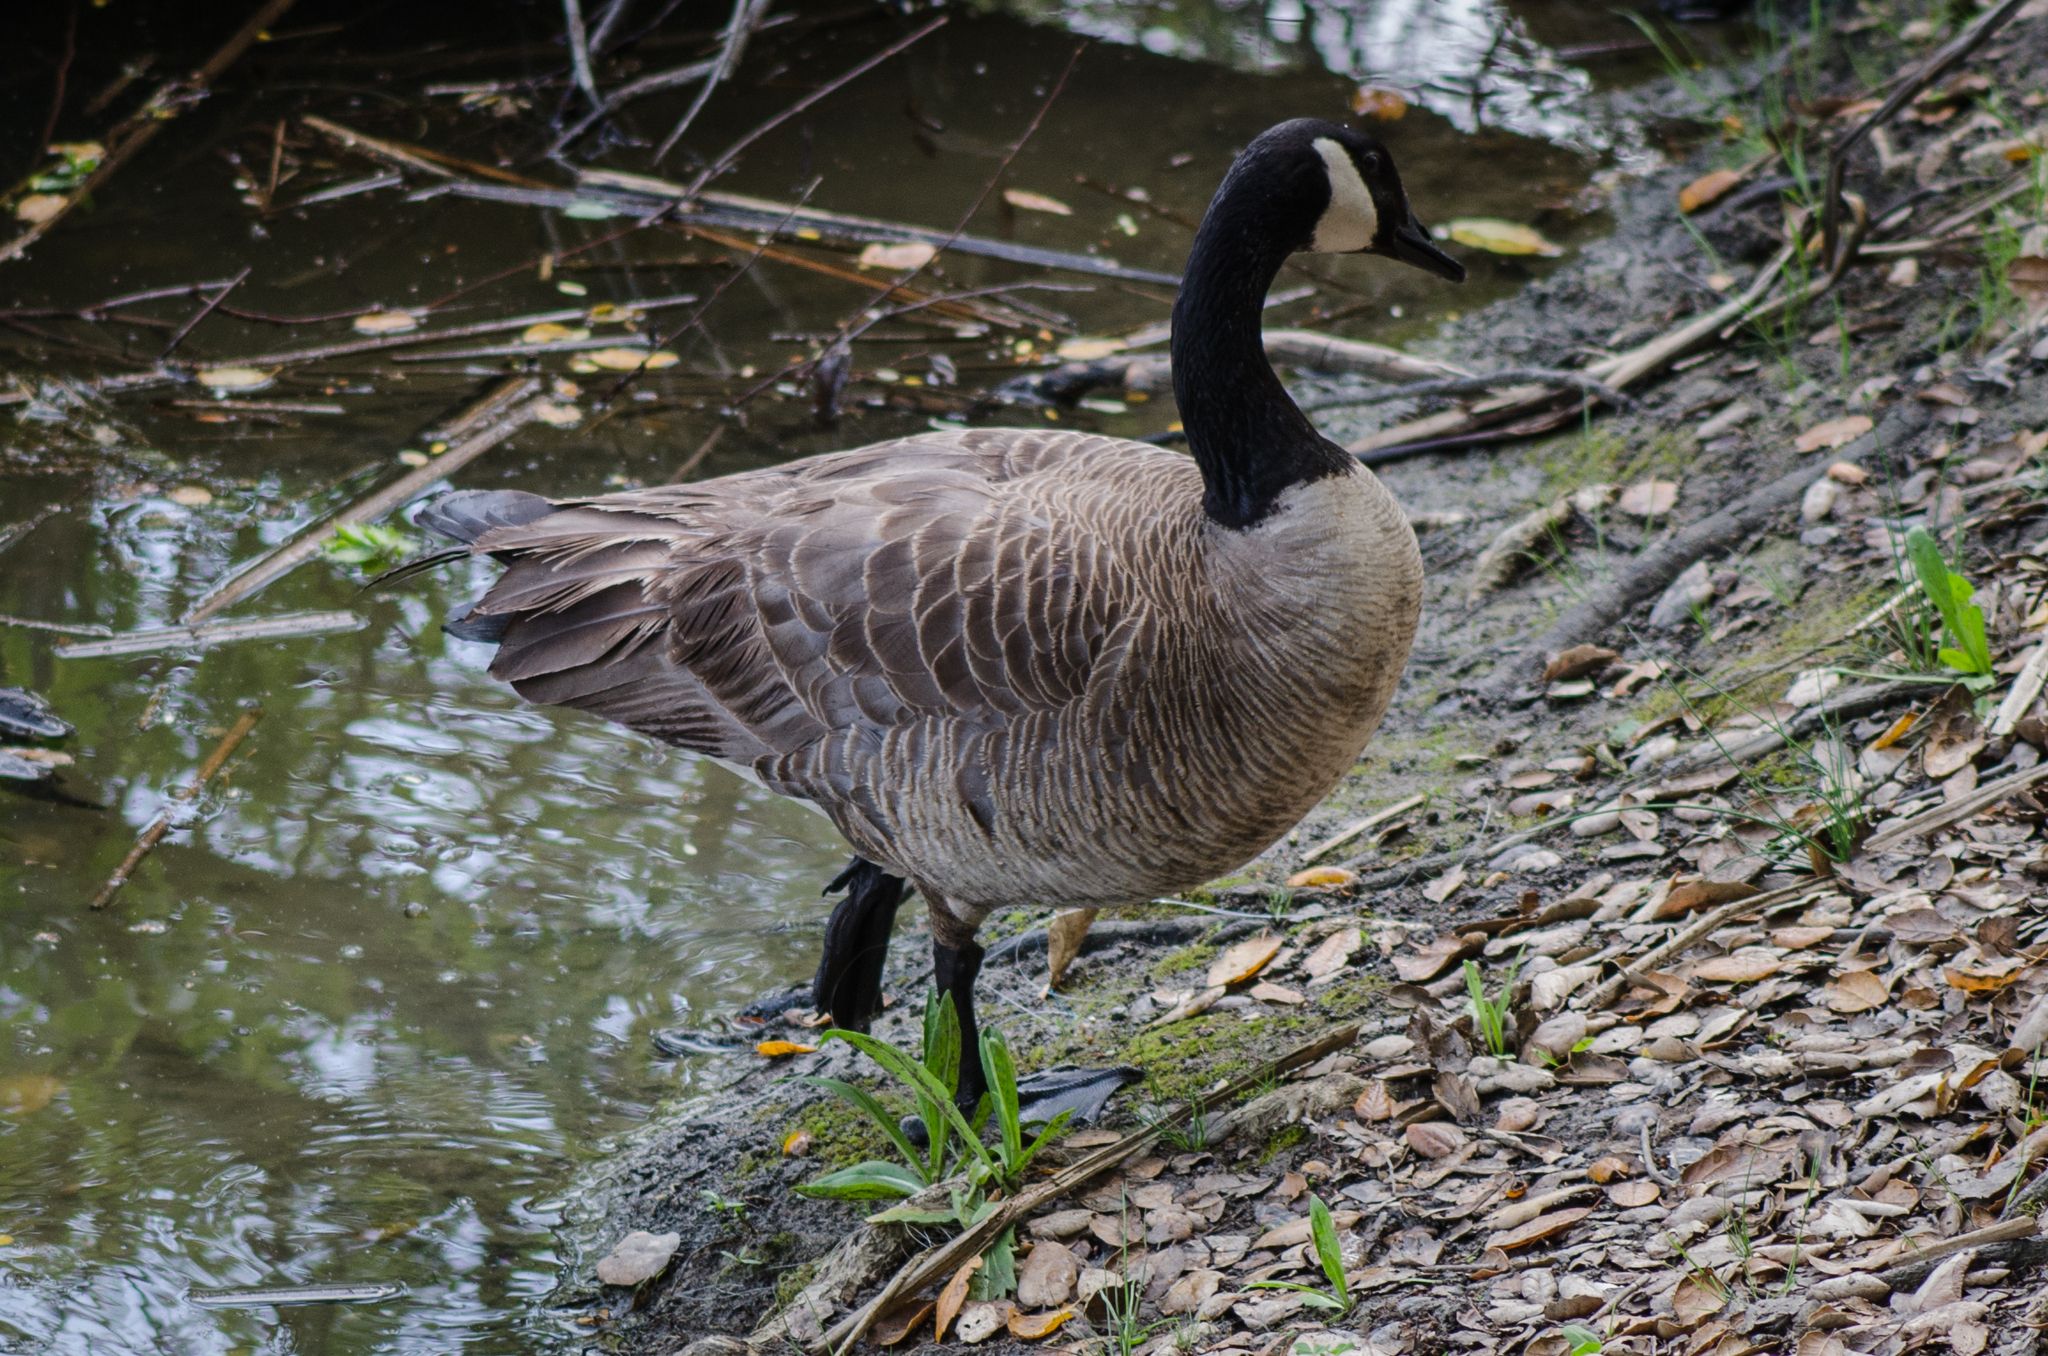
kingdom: Animalia
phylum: Chordata
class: Aves
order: Anseriformes
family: Anatidae
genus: Branta
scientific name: Branta canadensis
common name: Canada goose
